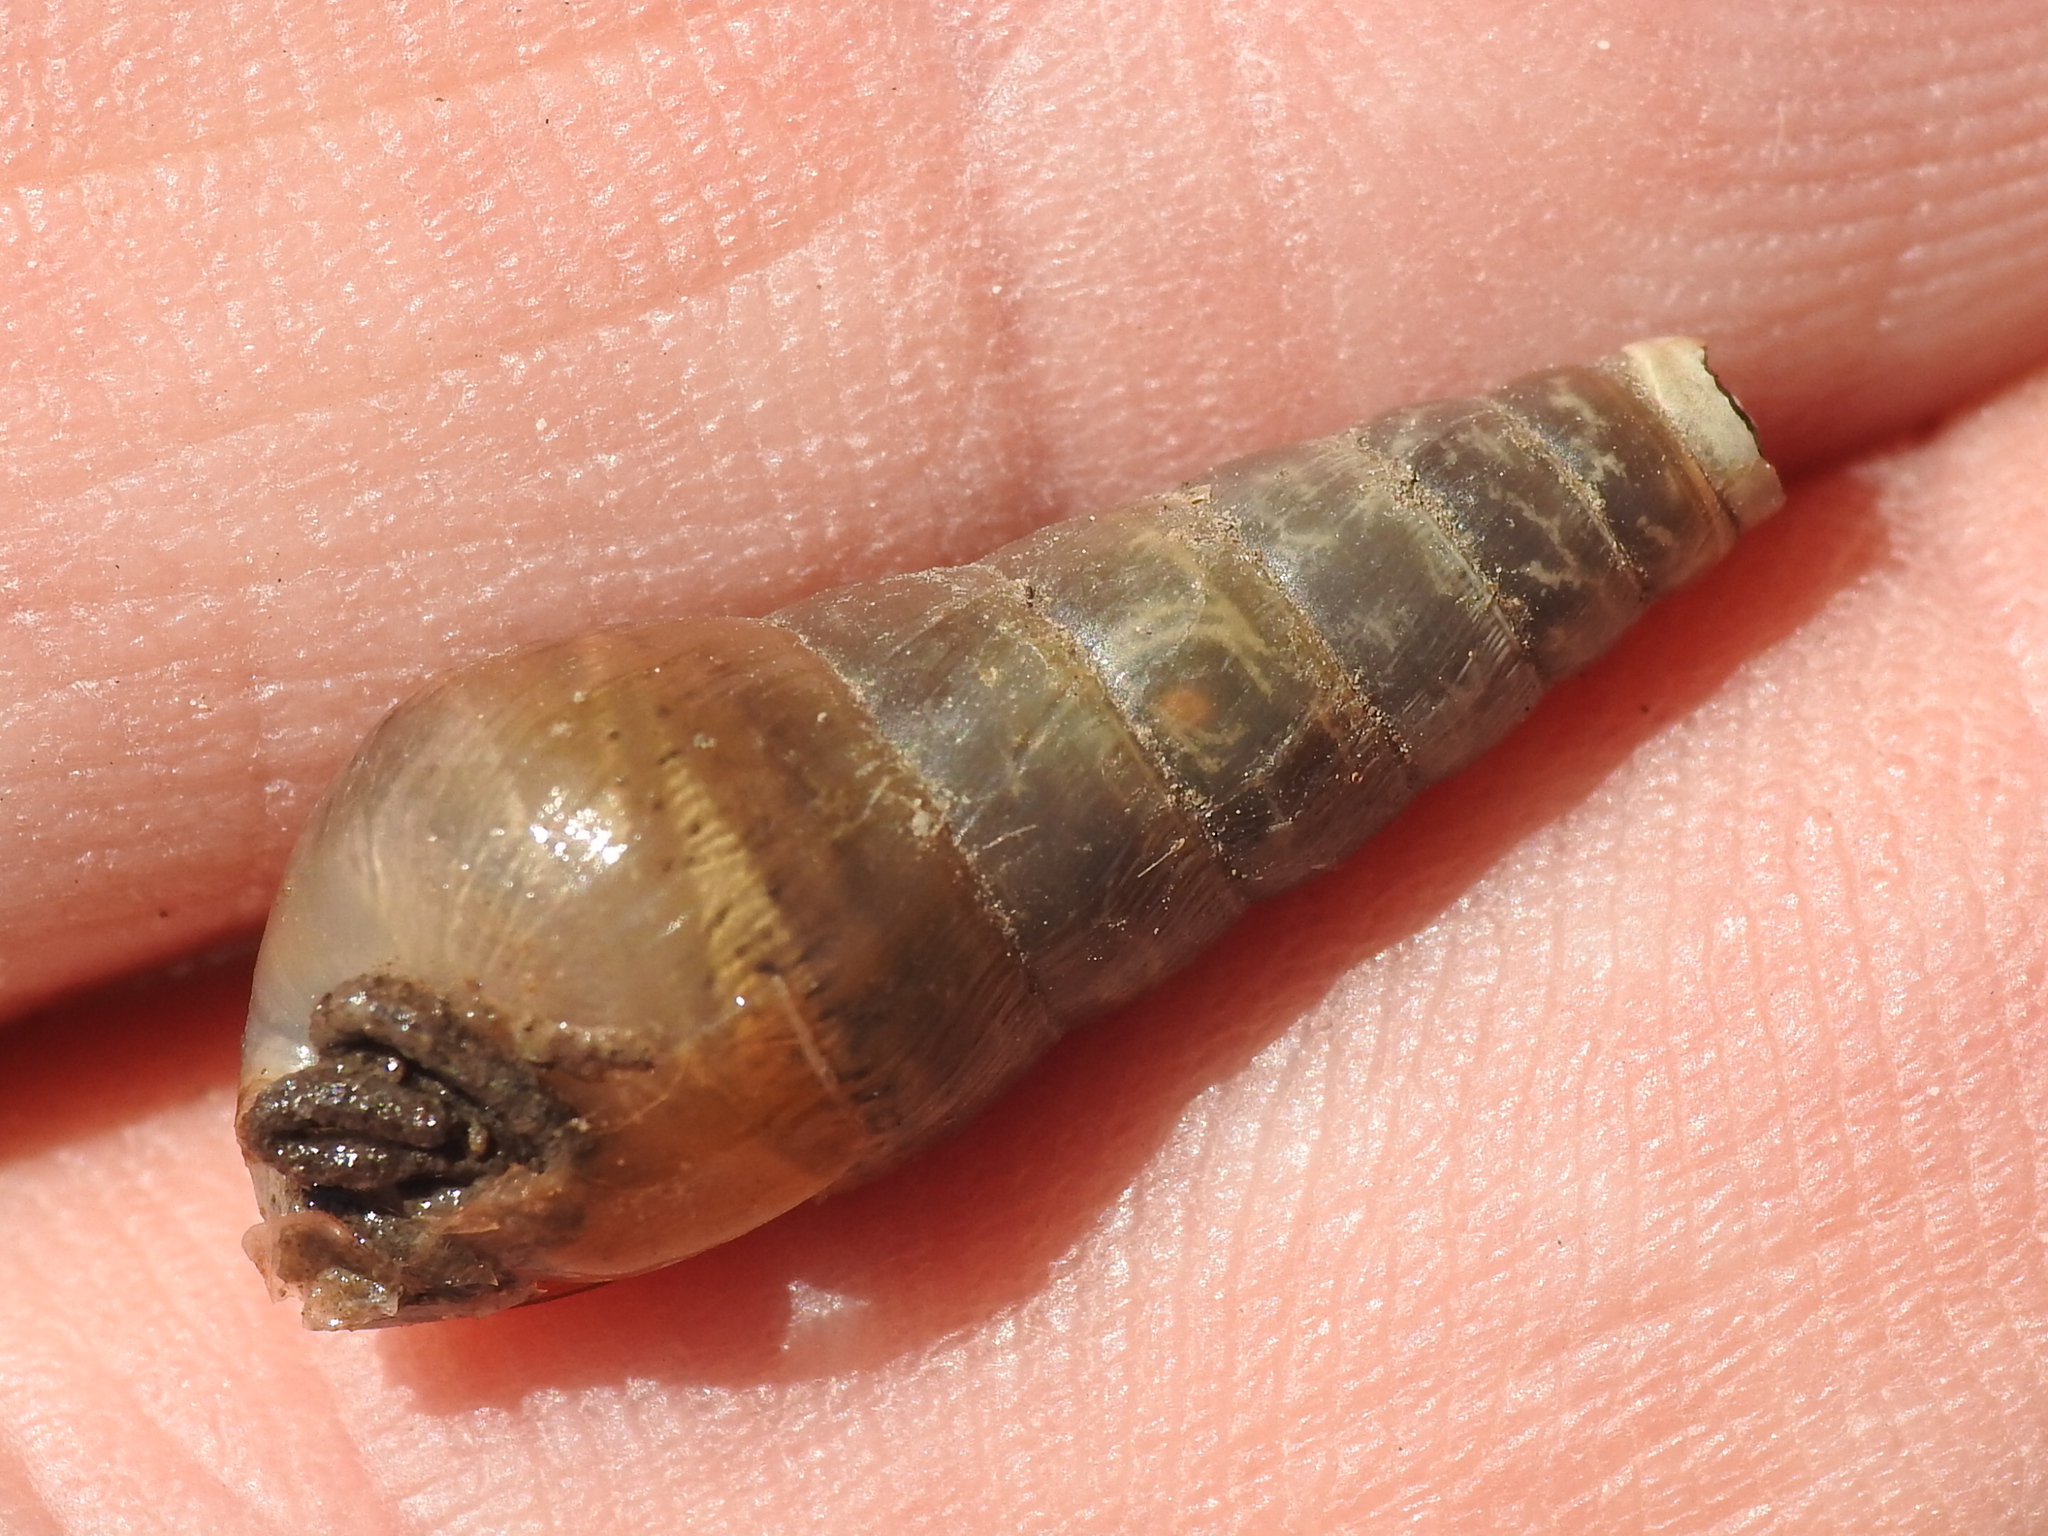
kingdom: Animalia
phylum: Mollusca
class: Gastropoda
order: Stylommatophora
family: Achatinidae
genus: Rumina
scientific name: Rumina decollata
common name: Decollate snail
